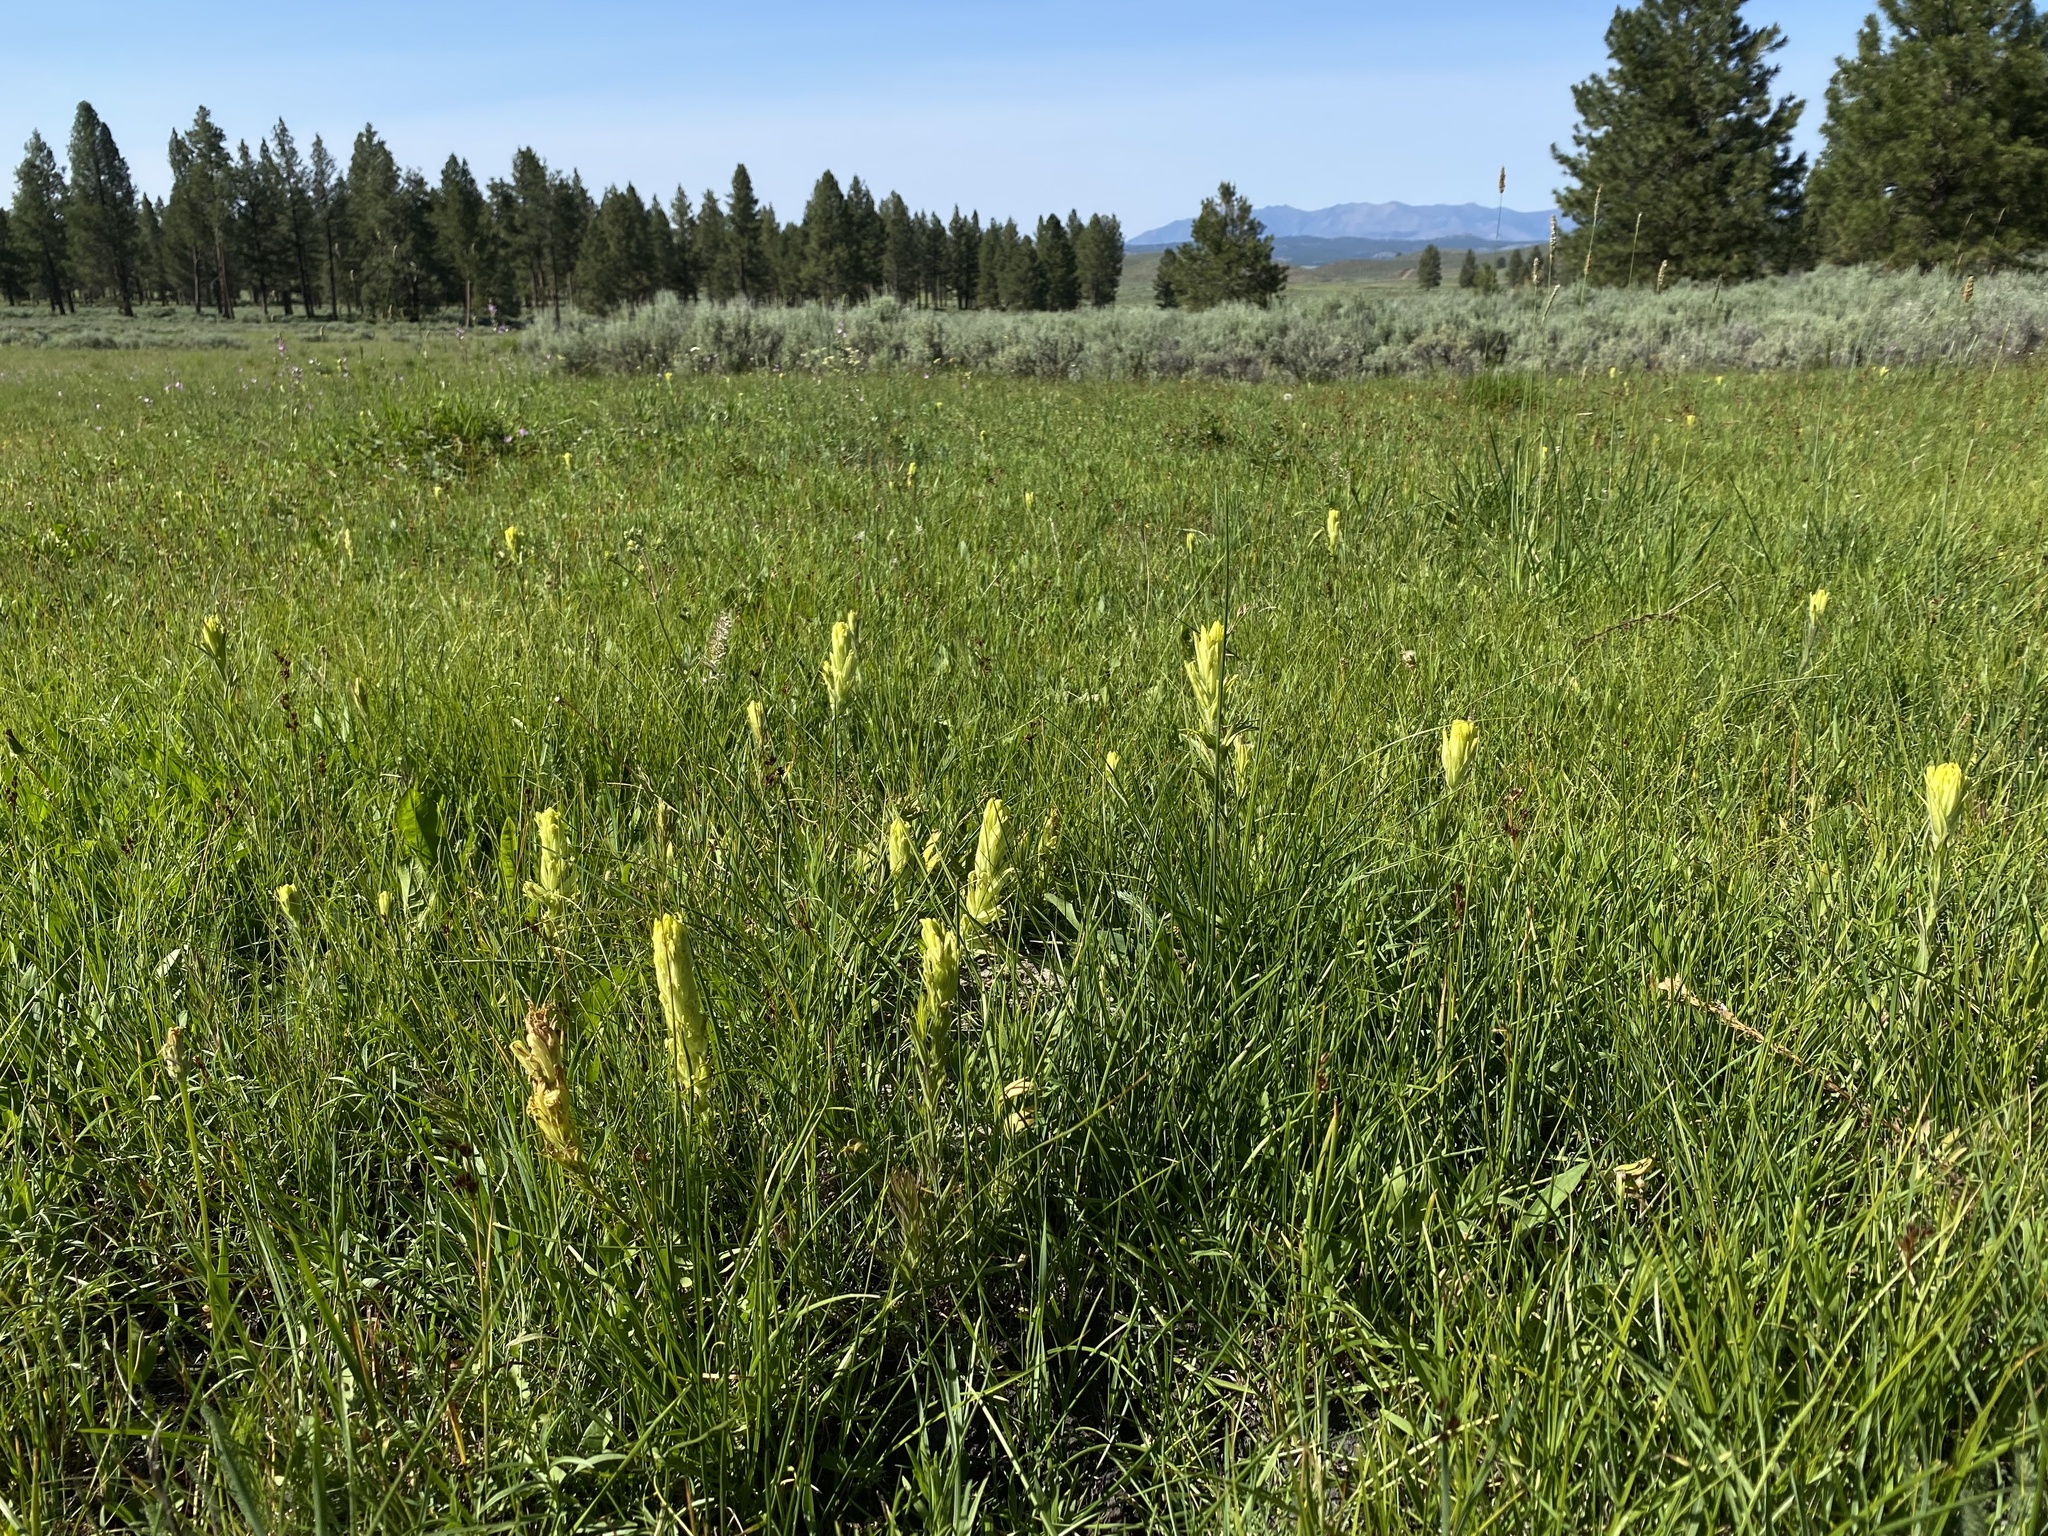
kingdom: Plantae
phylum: Tracheophyta
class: Magnoliopsida
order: Lamiales
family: Orobanchaceae
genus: Castilleja
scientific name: Castilleja cusickii
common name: Cusick's paintbrush
